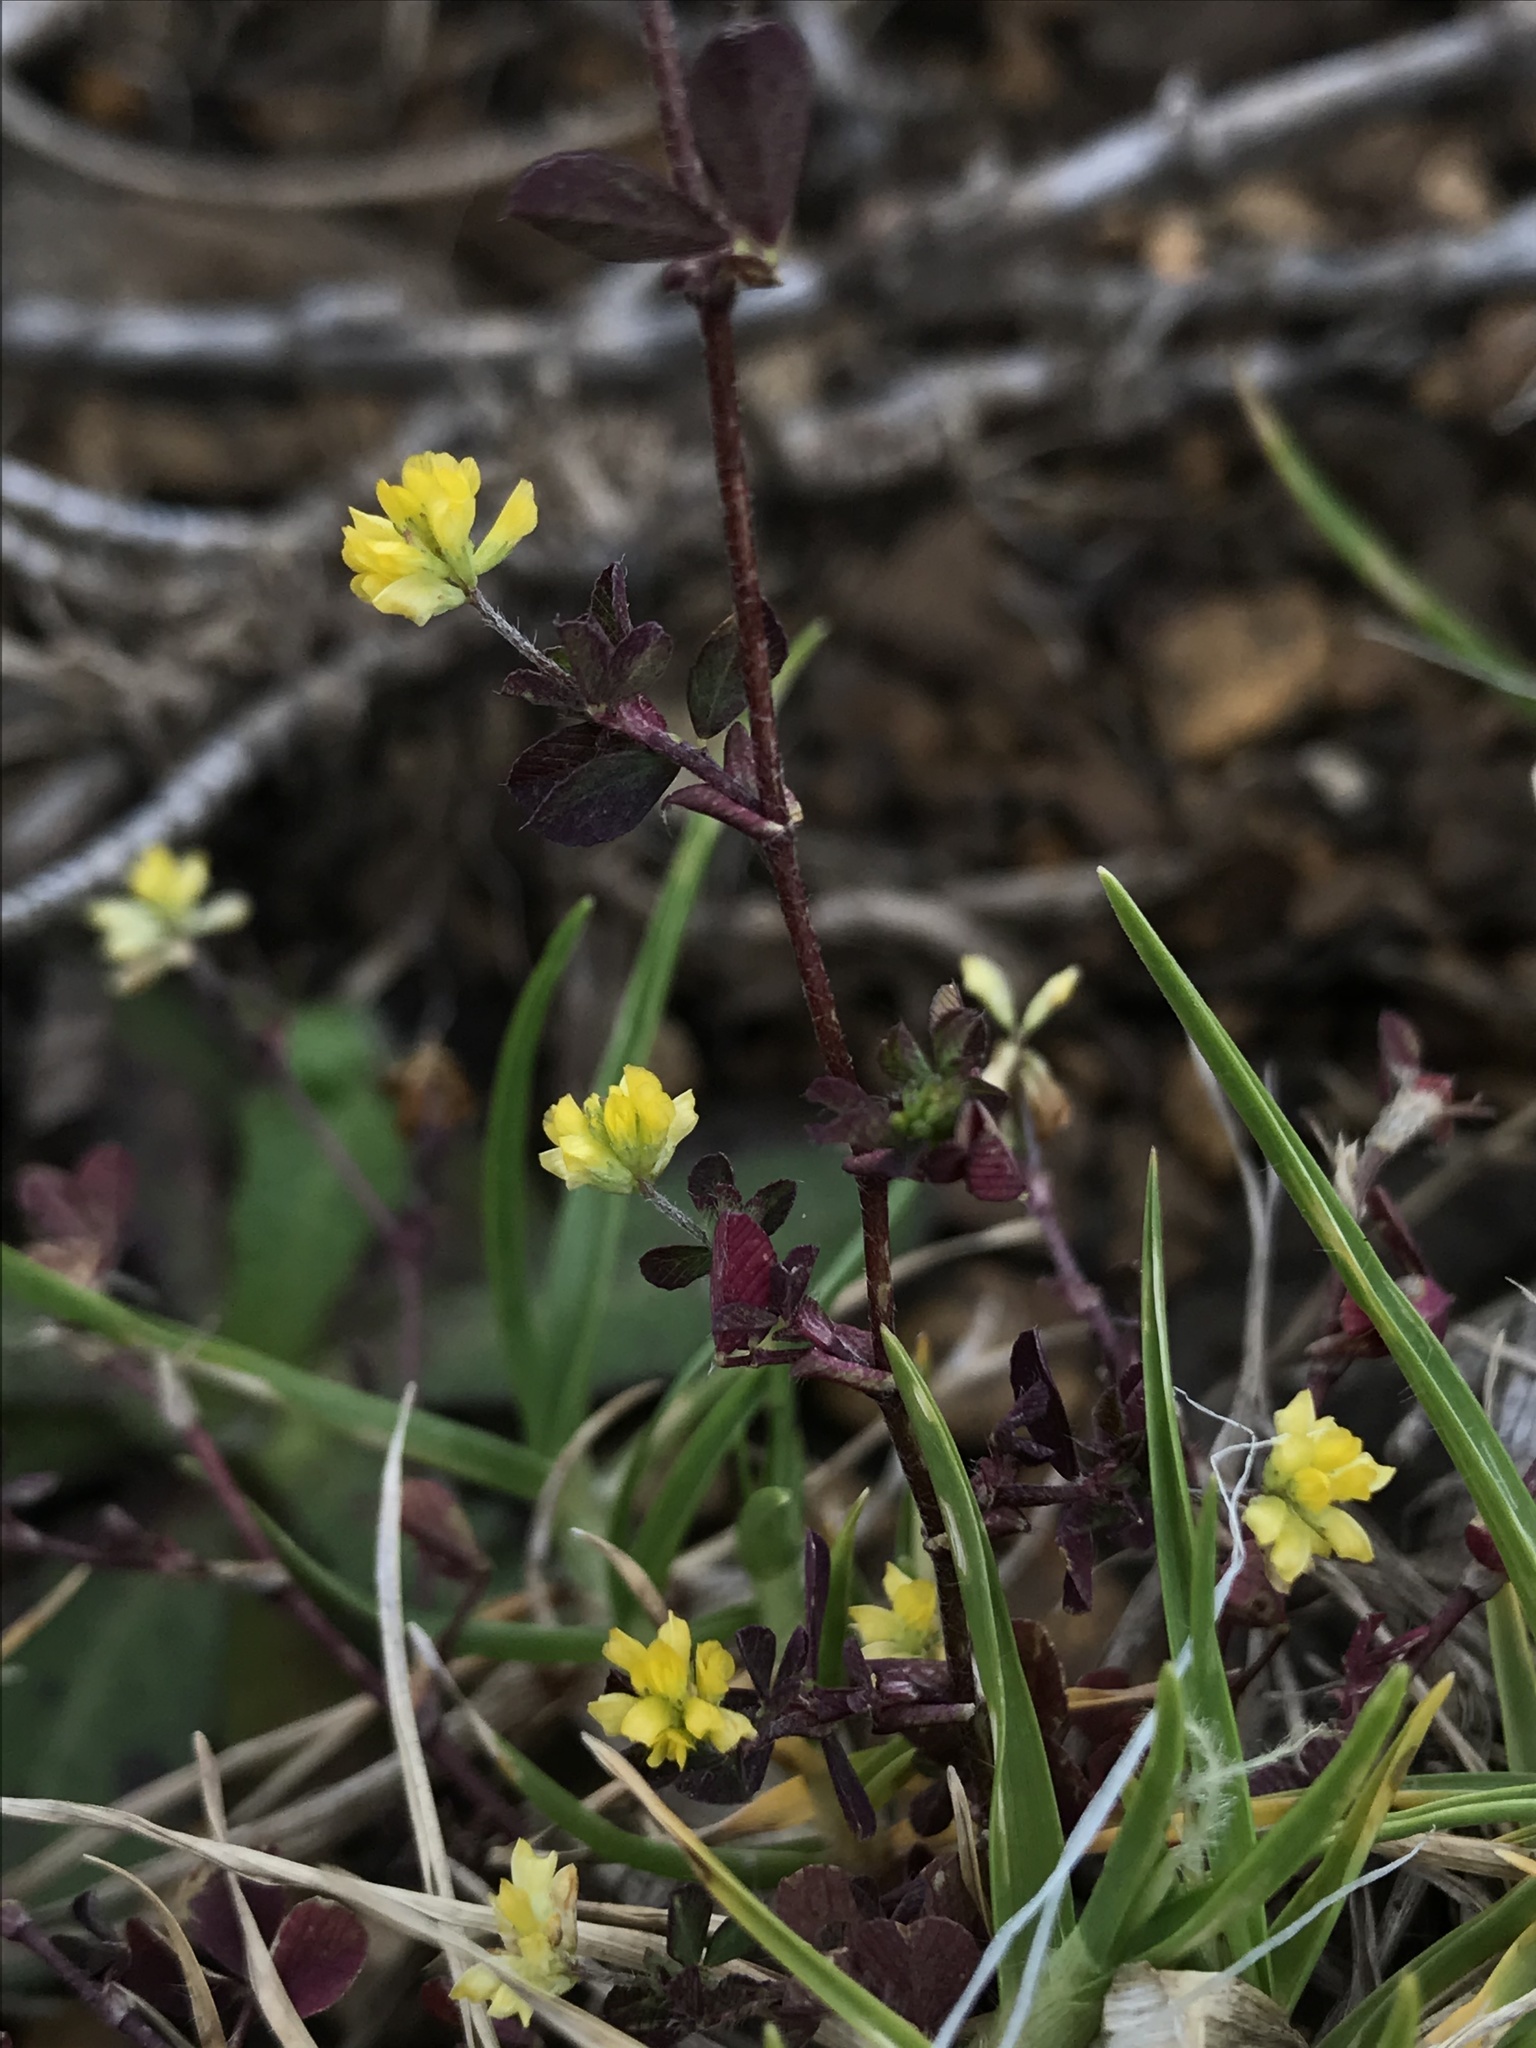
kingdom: Plantae
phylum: Tracheophyta
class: Magnoliopsida
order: Fabales
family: Fabaceae
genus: Trifolium
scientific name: Trifolium dubium
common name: Suckling clover
